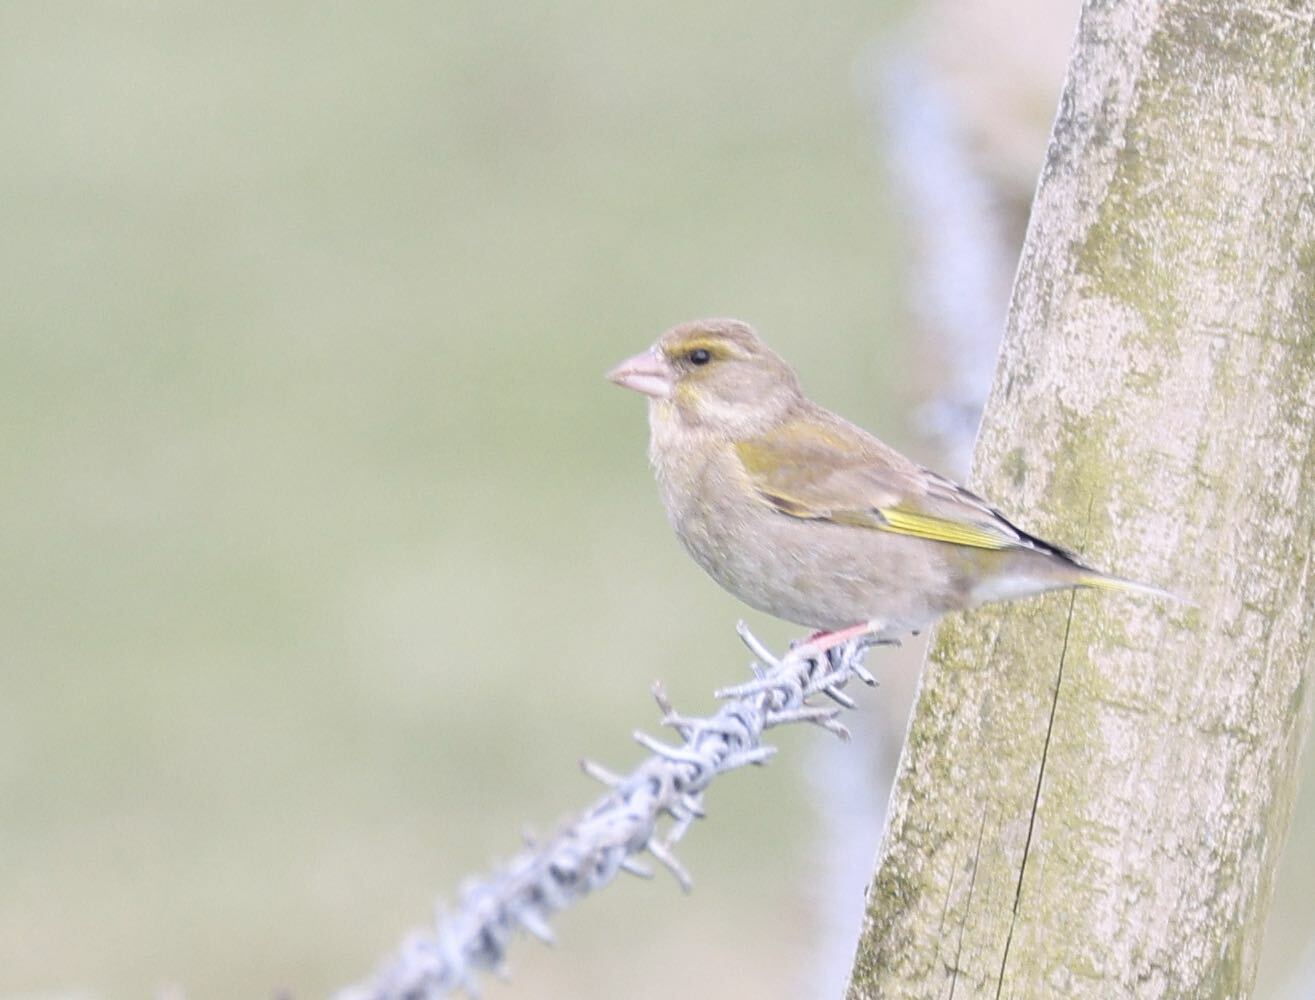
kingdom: Plantae
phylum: Tracheophyta
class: Liliopsida
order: Poales
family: Poaceae
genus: Chloris
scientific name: Chloris chloris
